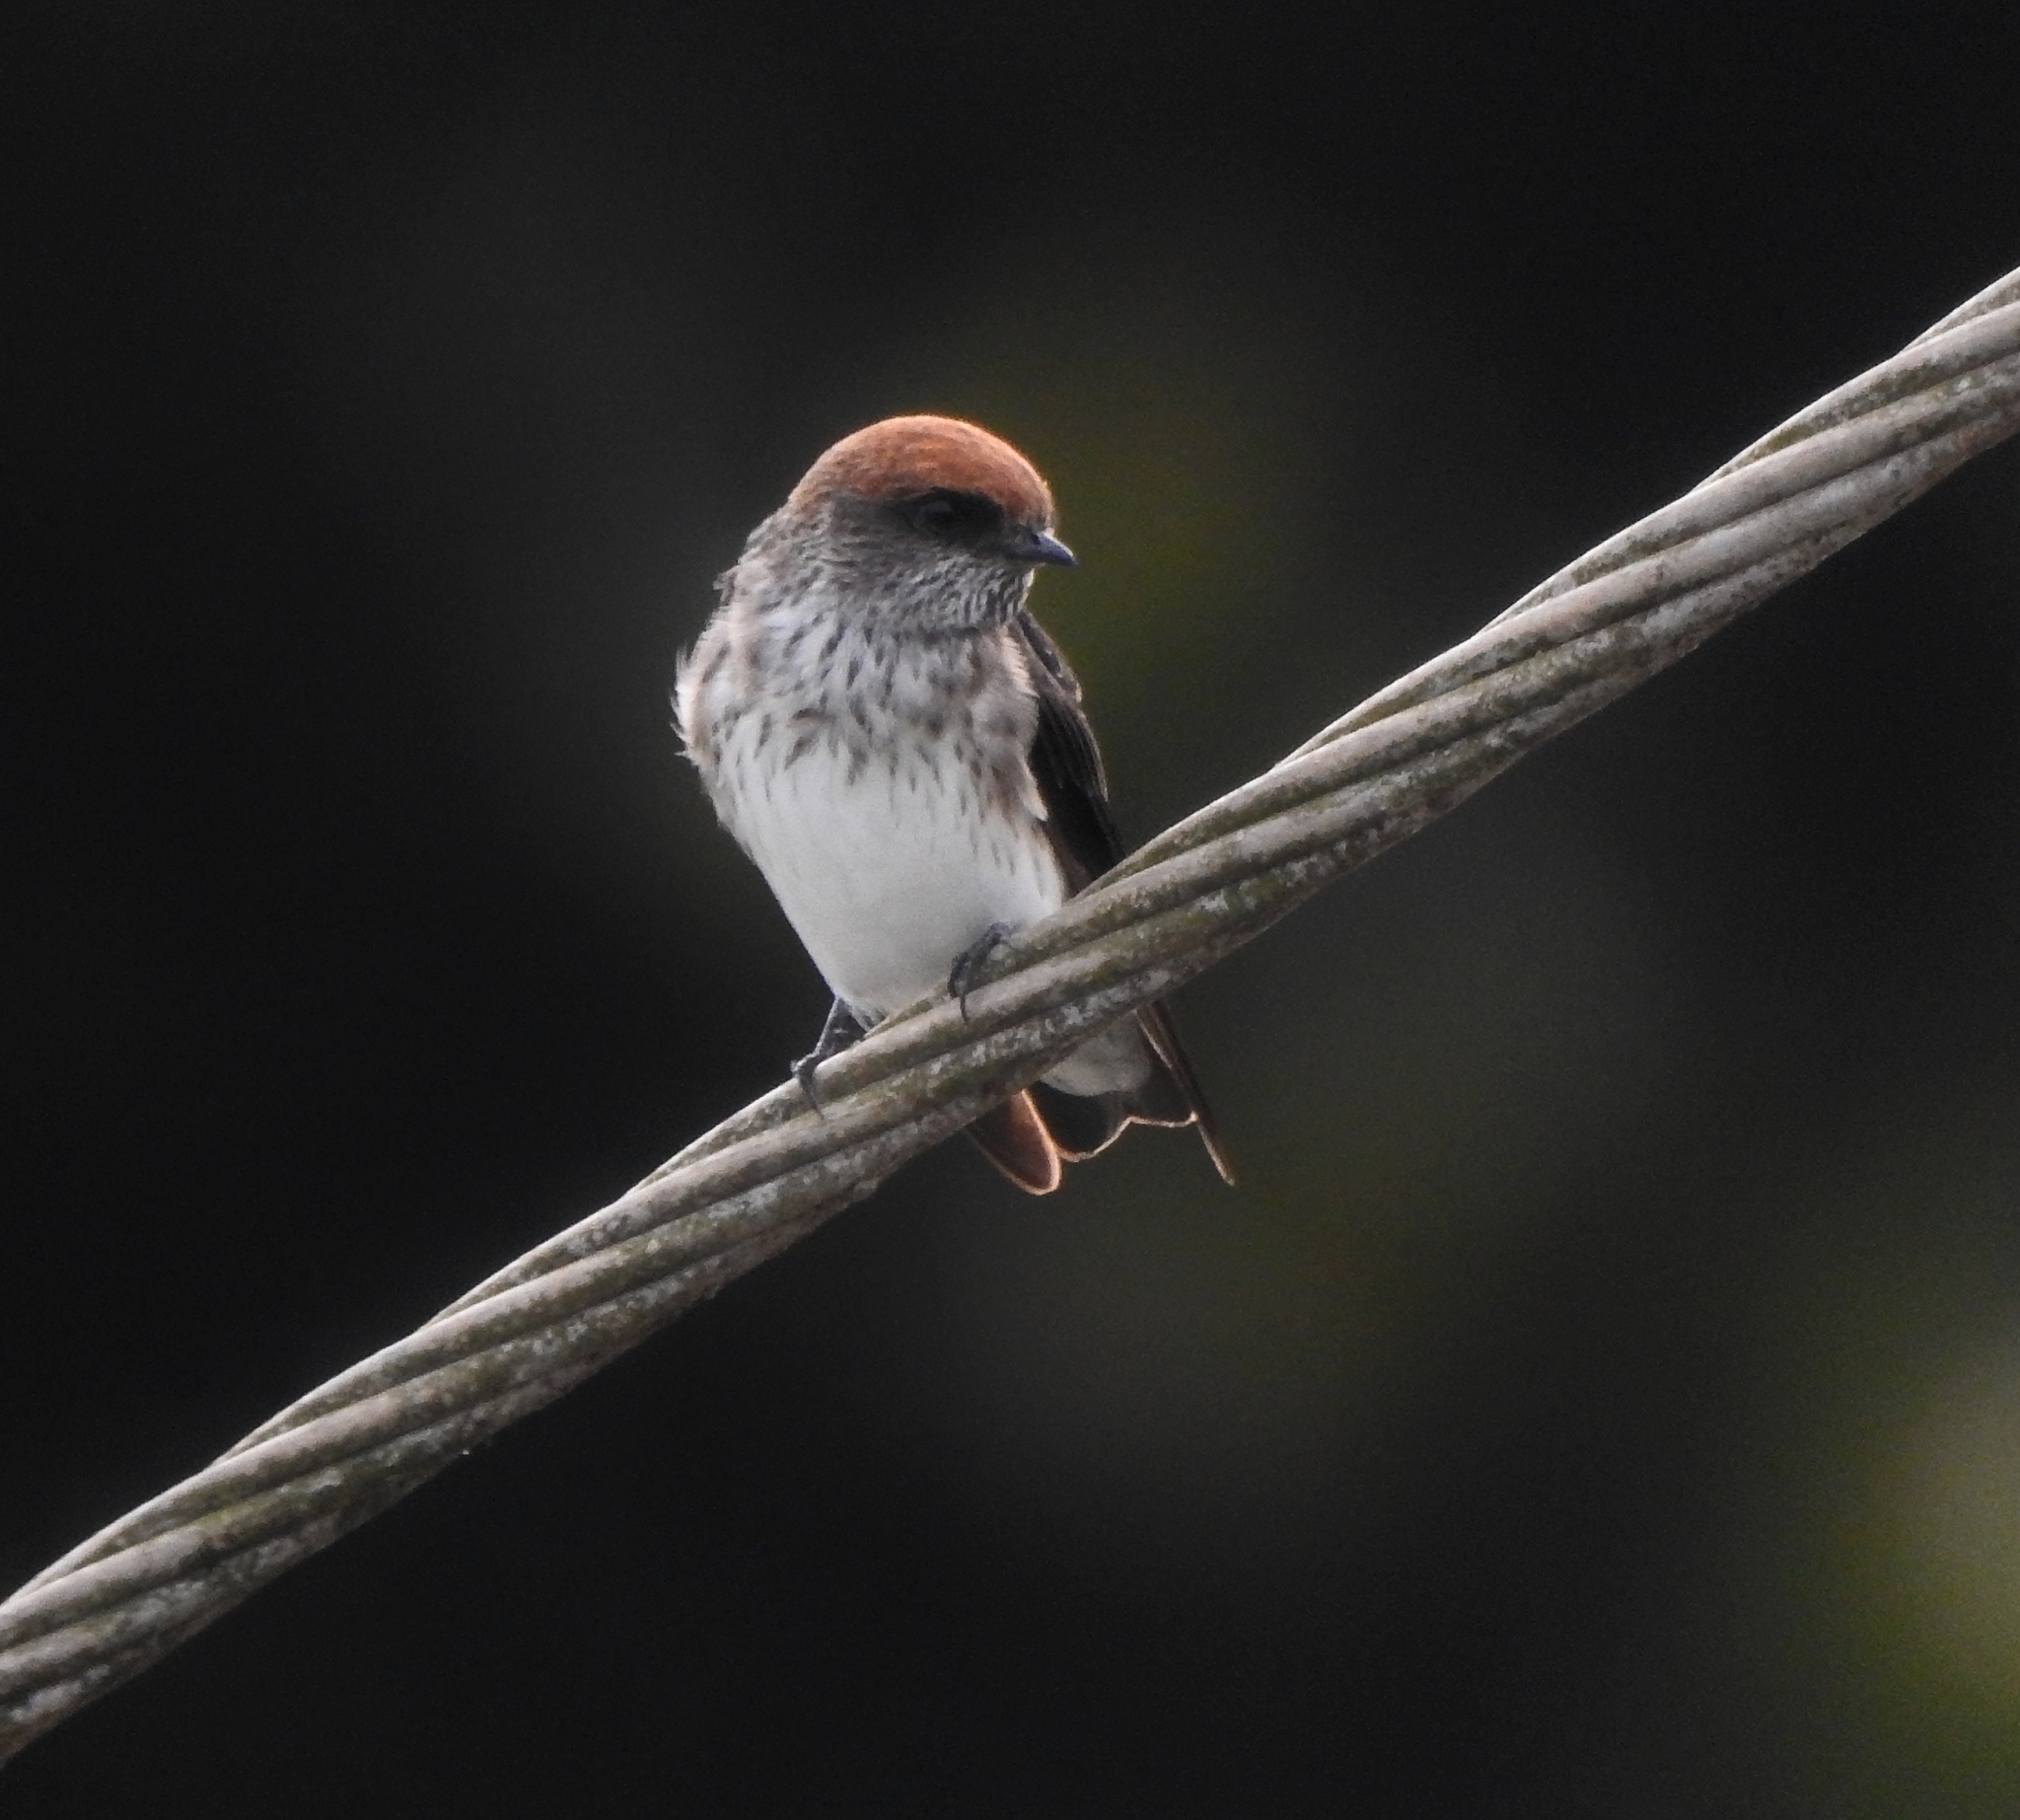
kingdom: Animalia
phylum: Chordata
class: Aves
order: Passeriformes
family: Hirundinidae
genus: Petrochelidon
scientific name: Petrochelidon fluvicola
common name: Streak-throated swallow
